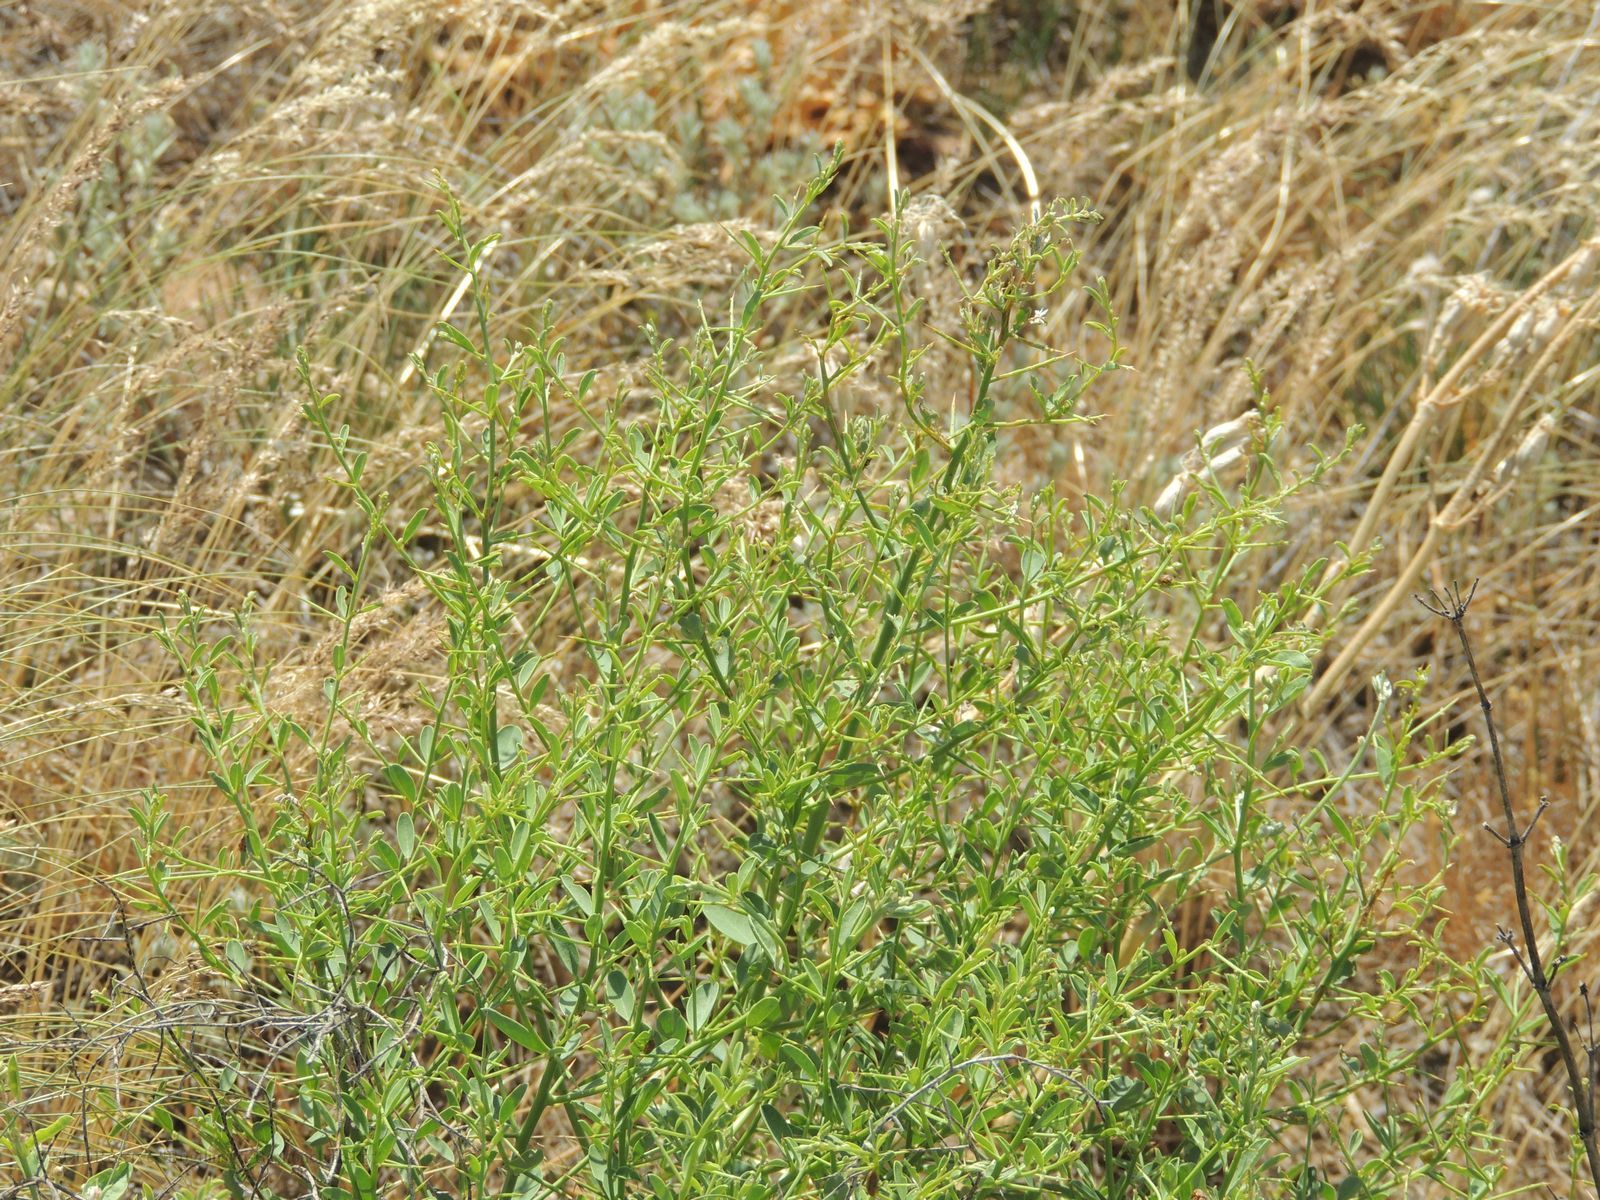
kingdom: Plantae
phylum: Tracheophyta
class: Magnoliopsida
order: Fabales
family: Fabaceae
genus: Alhagi
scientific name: Alhagi pseudalhagi
